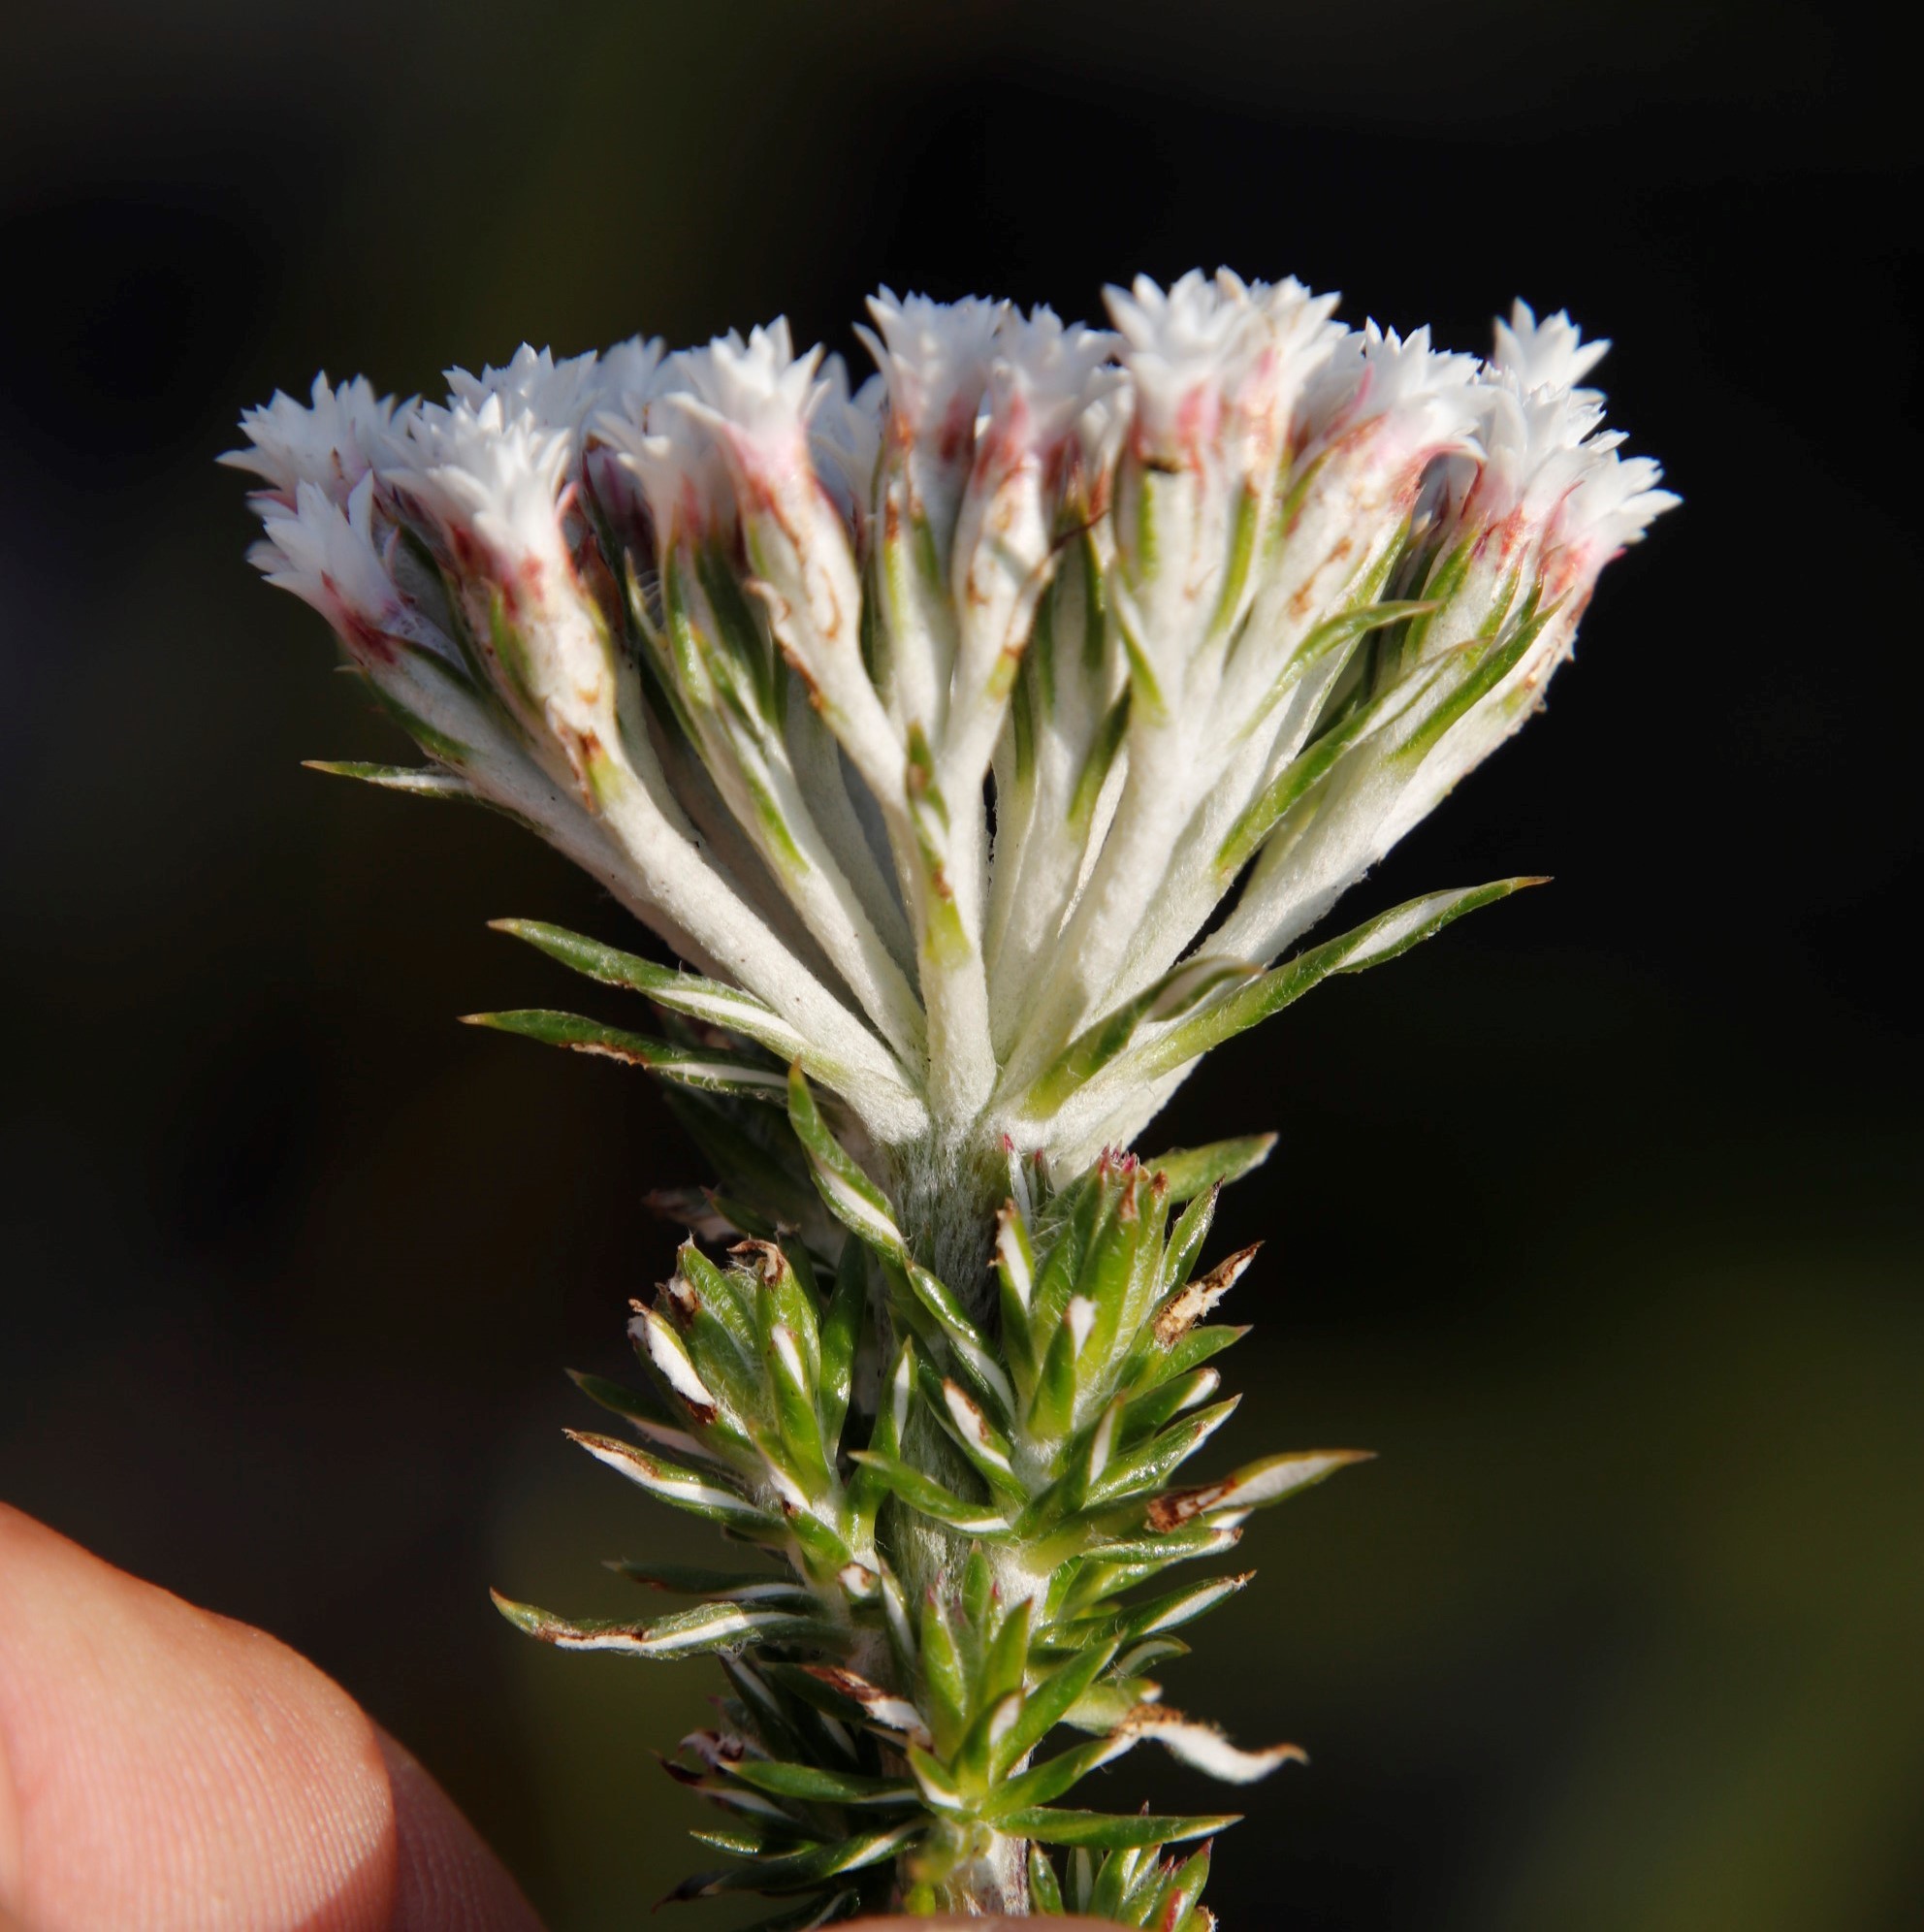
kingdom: Plantae
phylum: Tracheophyta
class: Magnoliopsida
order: Asterales
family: Asteraceae
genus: Metalasia
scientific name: Metalasia lichtensteinii
